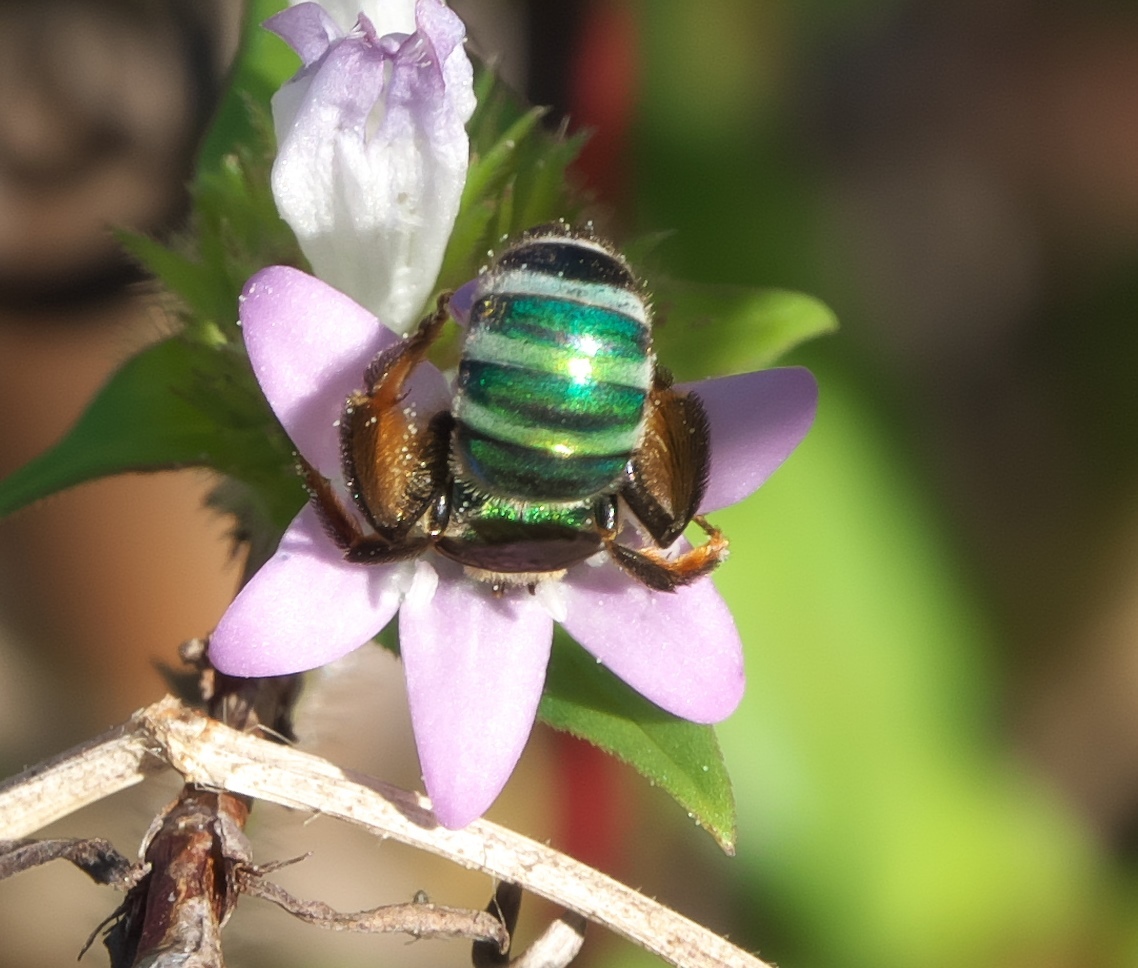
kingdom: Animalia
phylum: Arthropoda
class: Insecta
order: Hymenoptera
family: Halictidae
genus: Agapostemon
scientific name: Agapostemon splendens
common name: Brown-winged striped sweat bee
